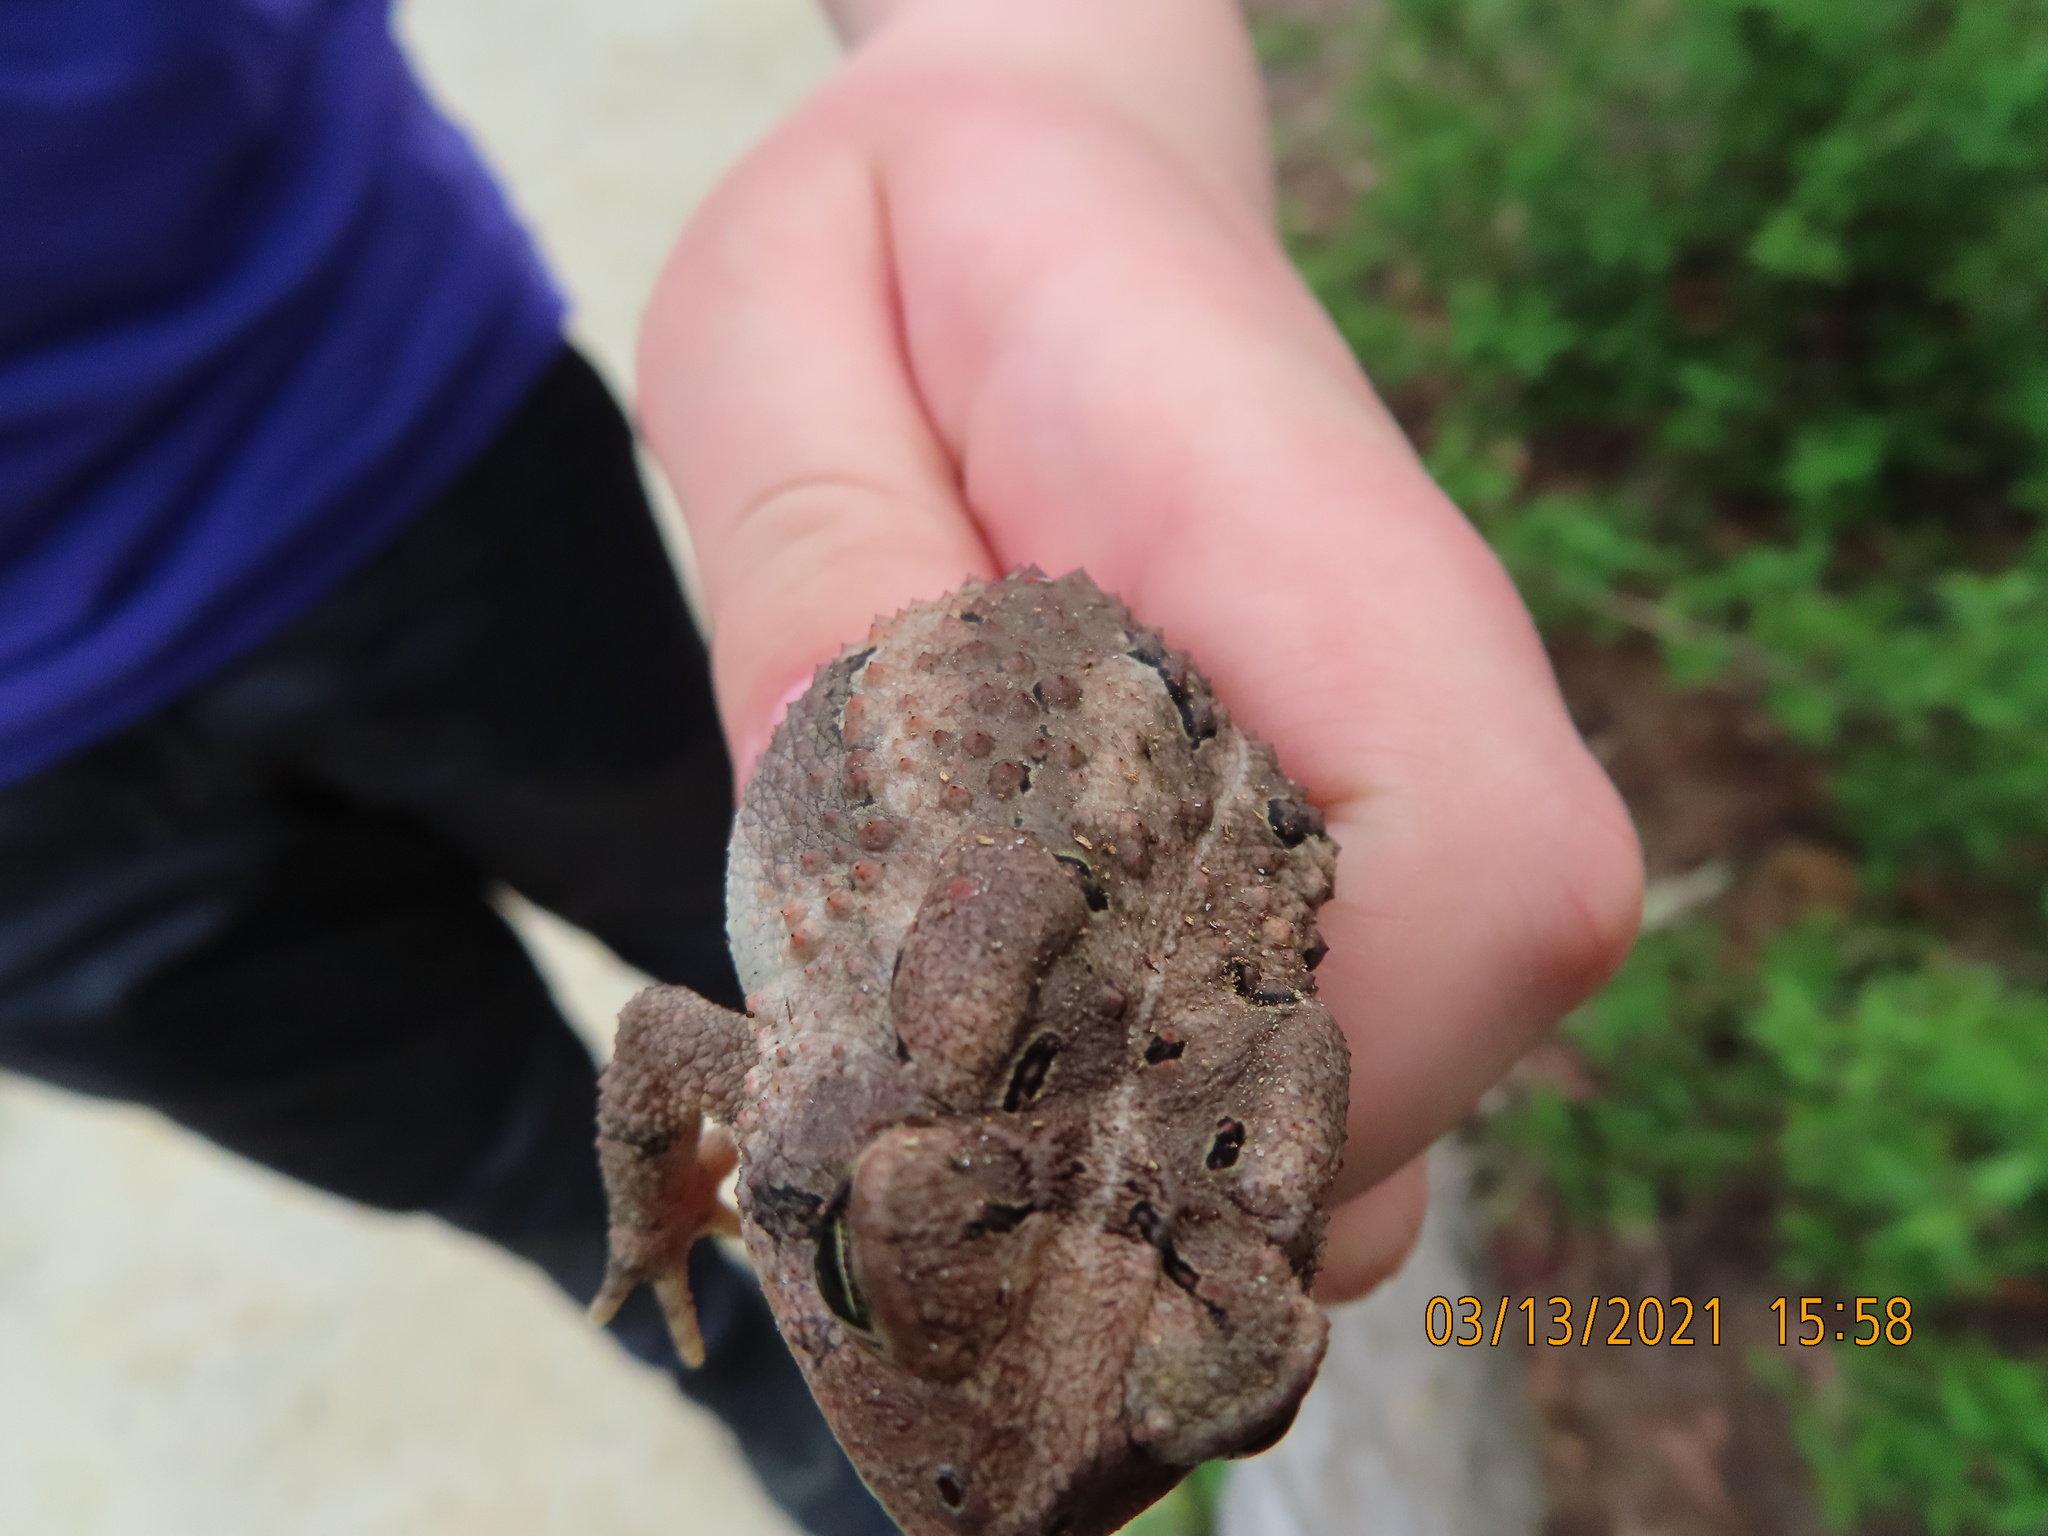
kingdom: Animalia
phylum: Chordata
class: Amphibia
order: Anura
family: Bufonidae
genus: Anaxyrus
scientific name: Anaxyrus fowleri
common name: Fowler's toad
